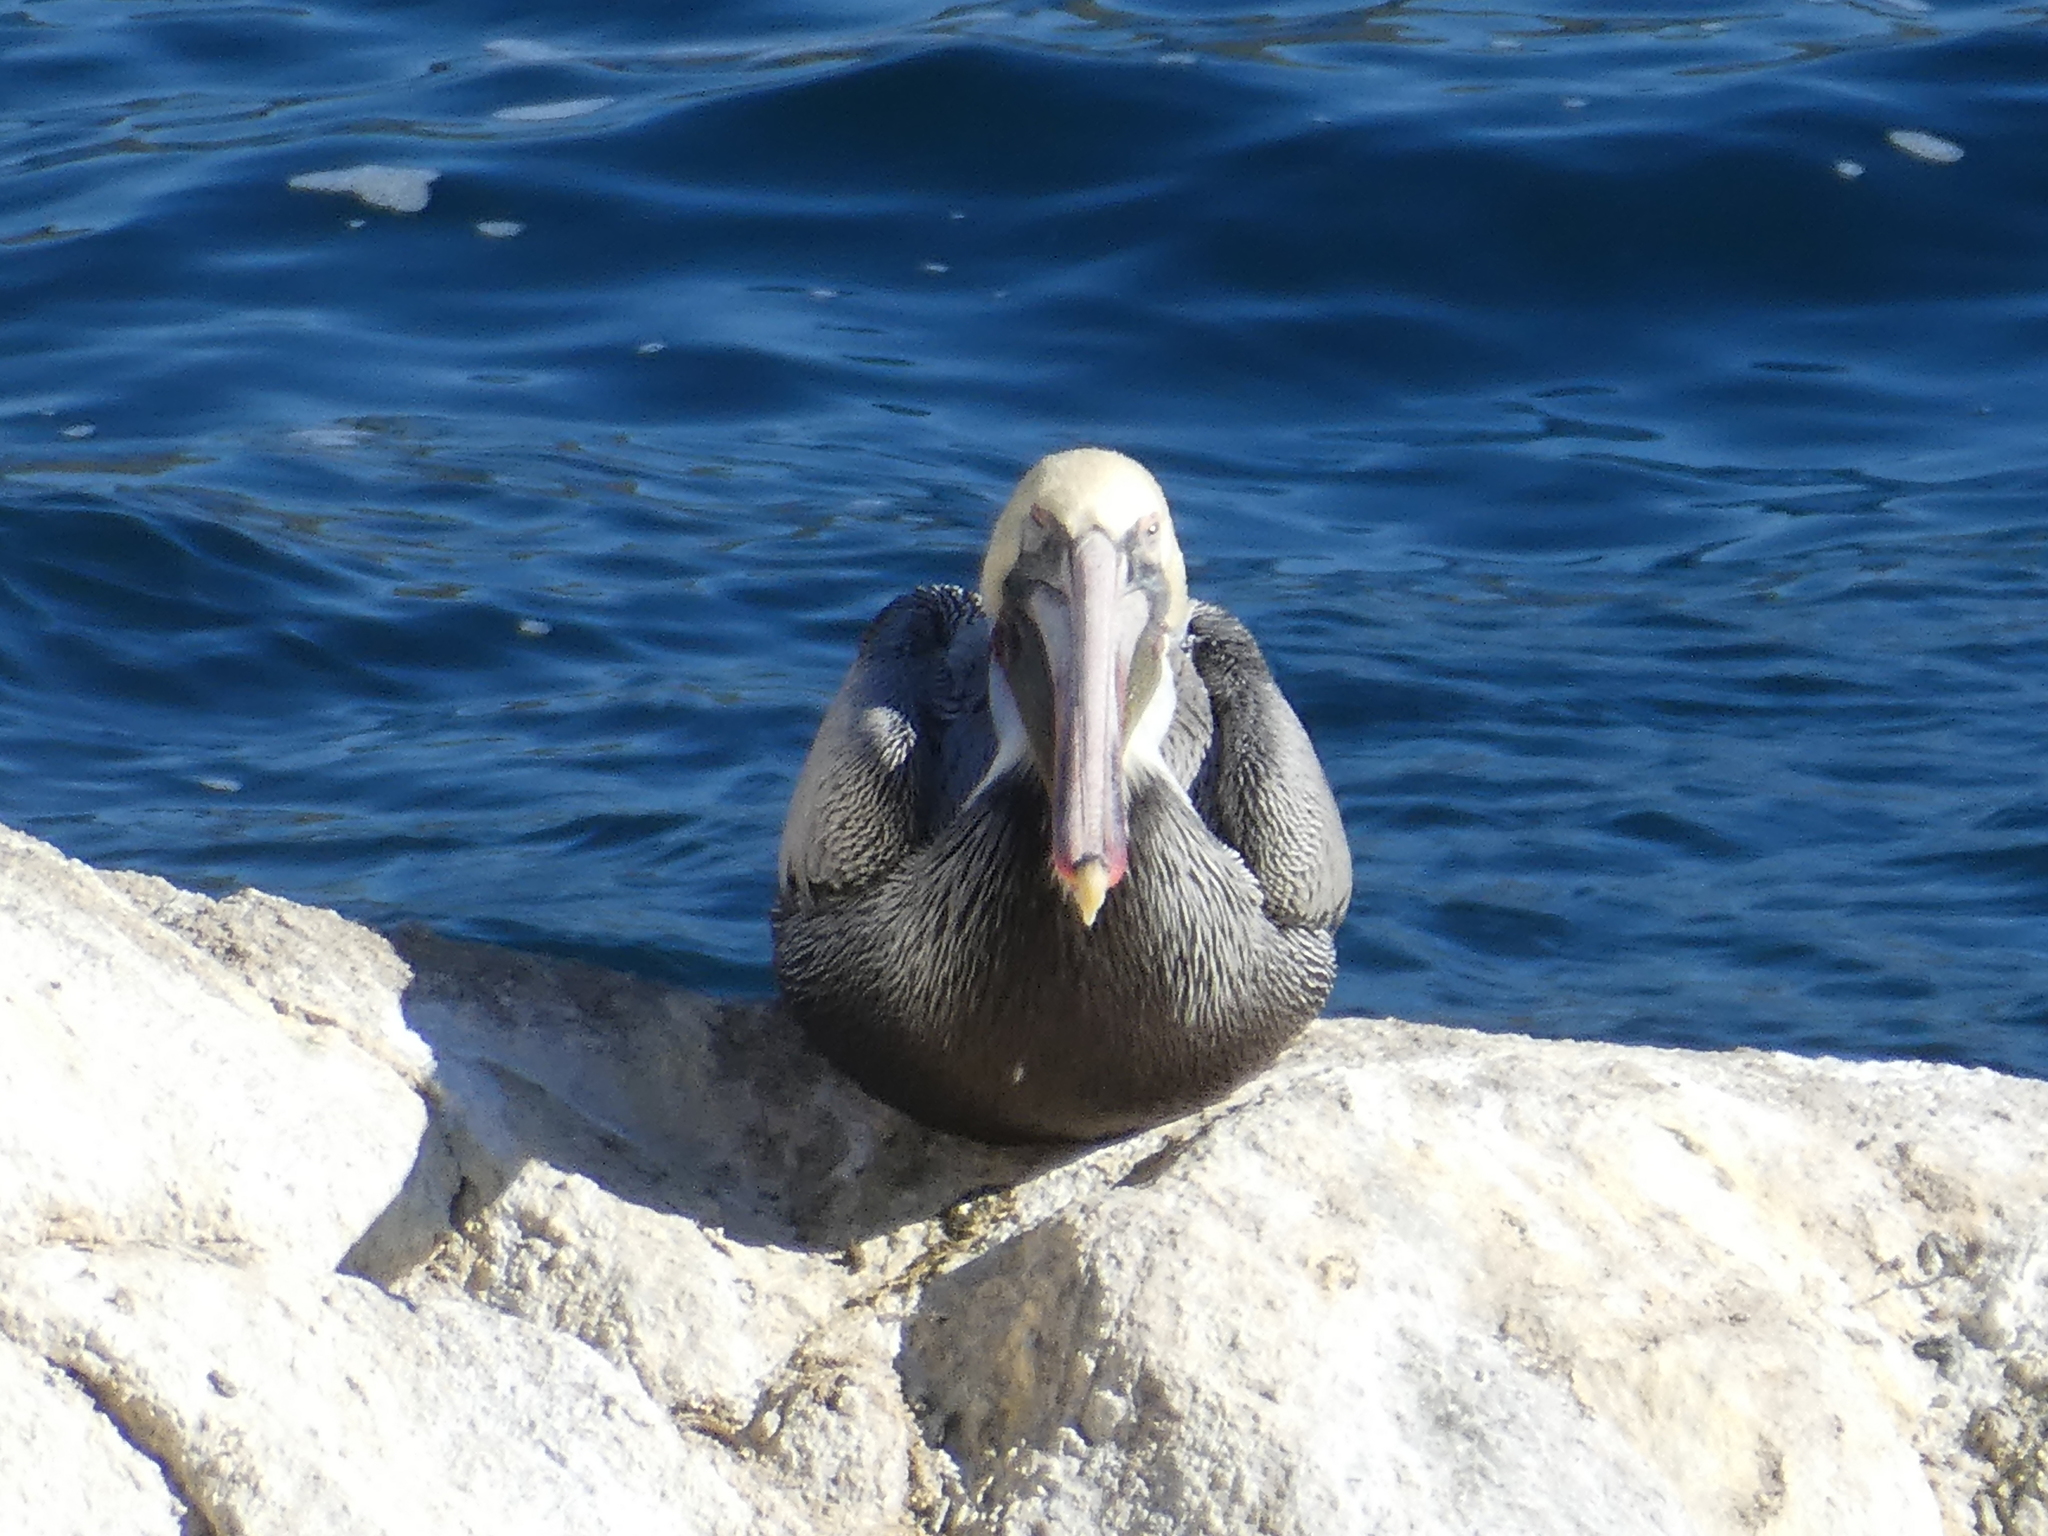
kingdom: Animalia
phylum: Chordata
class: Aves
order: Pelecaniformes
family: Pelecanidae
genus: Pelecanus
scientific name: Pelecanus occidentalis
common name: Brown pelican
